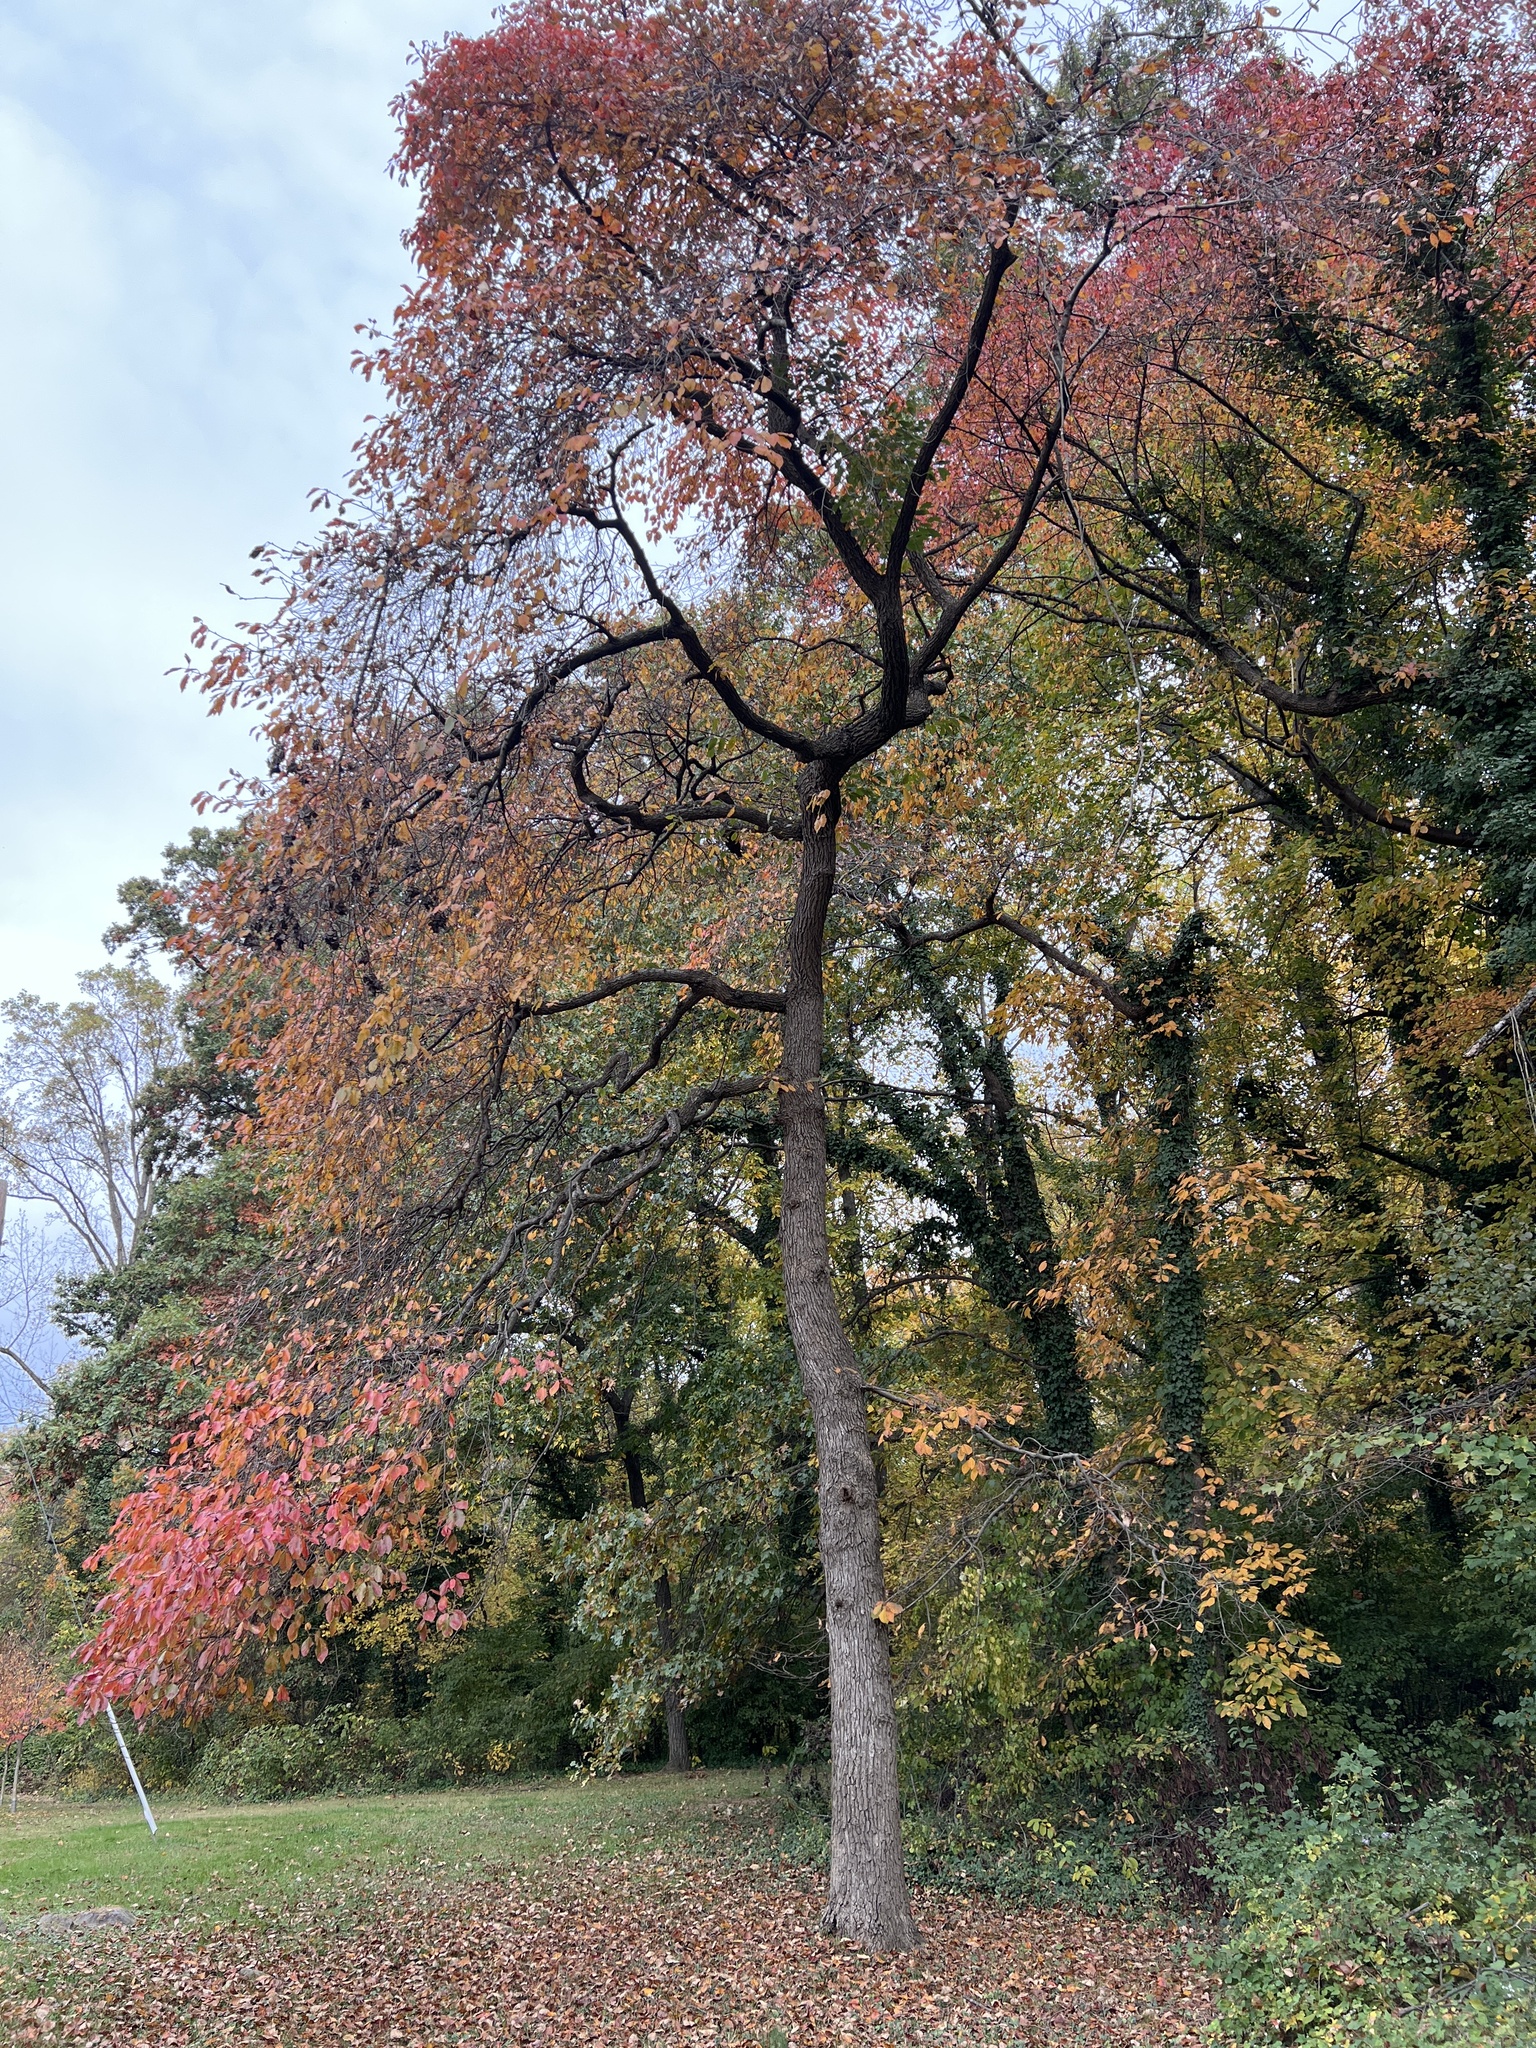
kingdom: Plantae
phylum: Tracheophyta
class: Magnoliopsida
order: Cornales
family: Nyssaceae
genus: Nyssa
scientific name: Nyssa sylvatica
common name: Black tupelo
